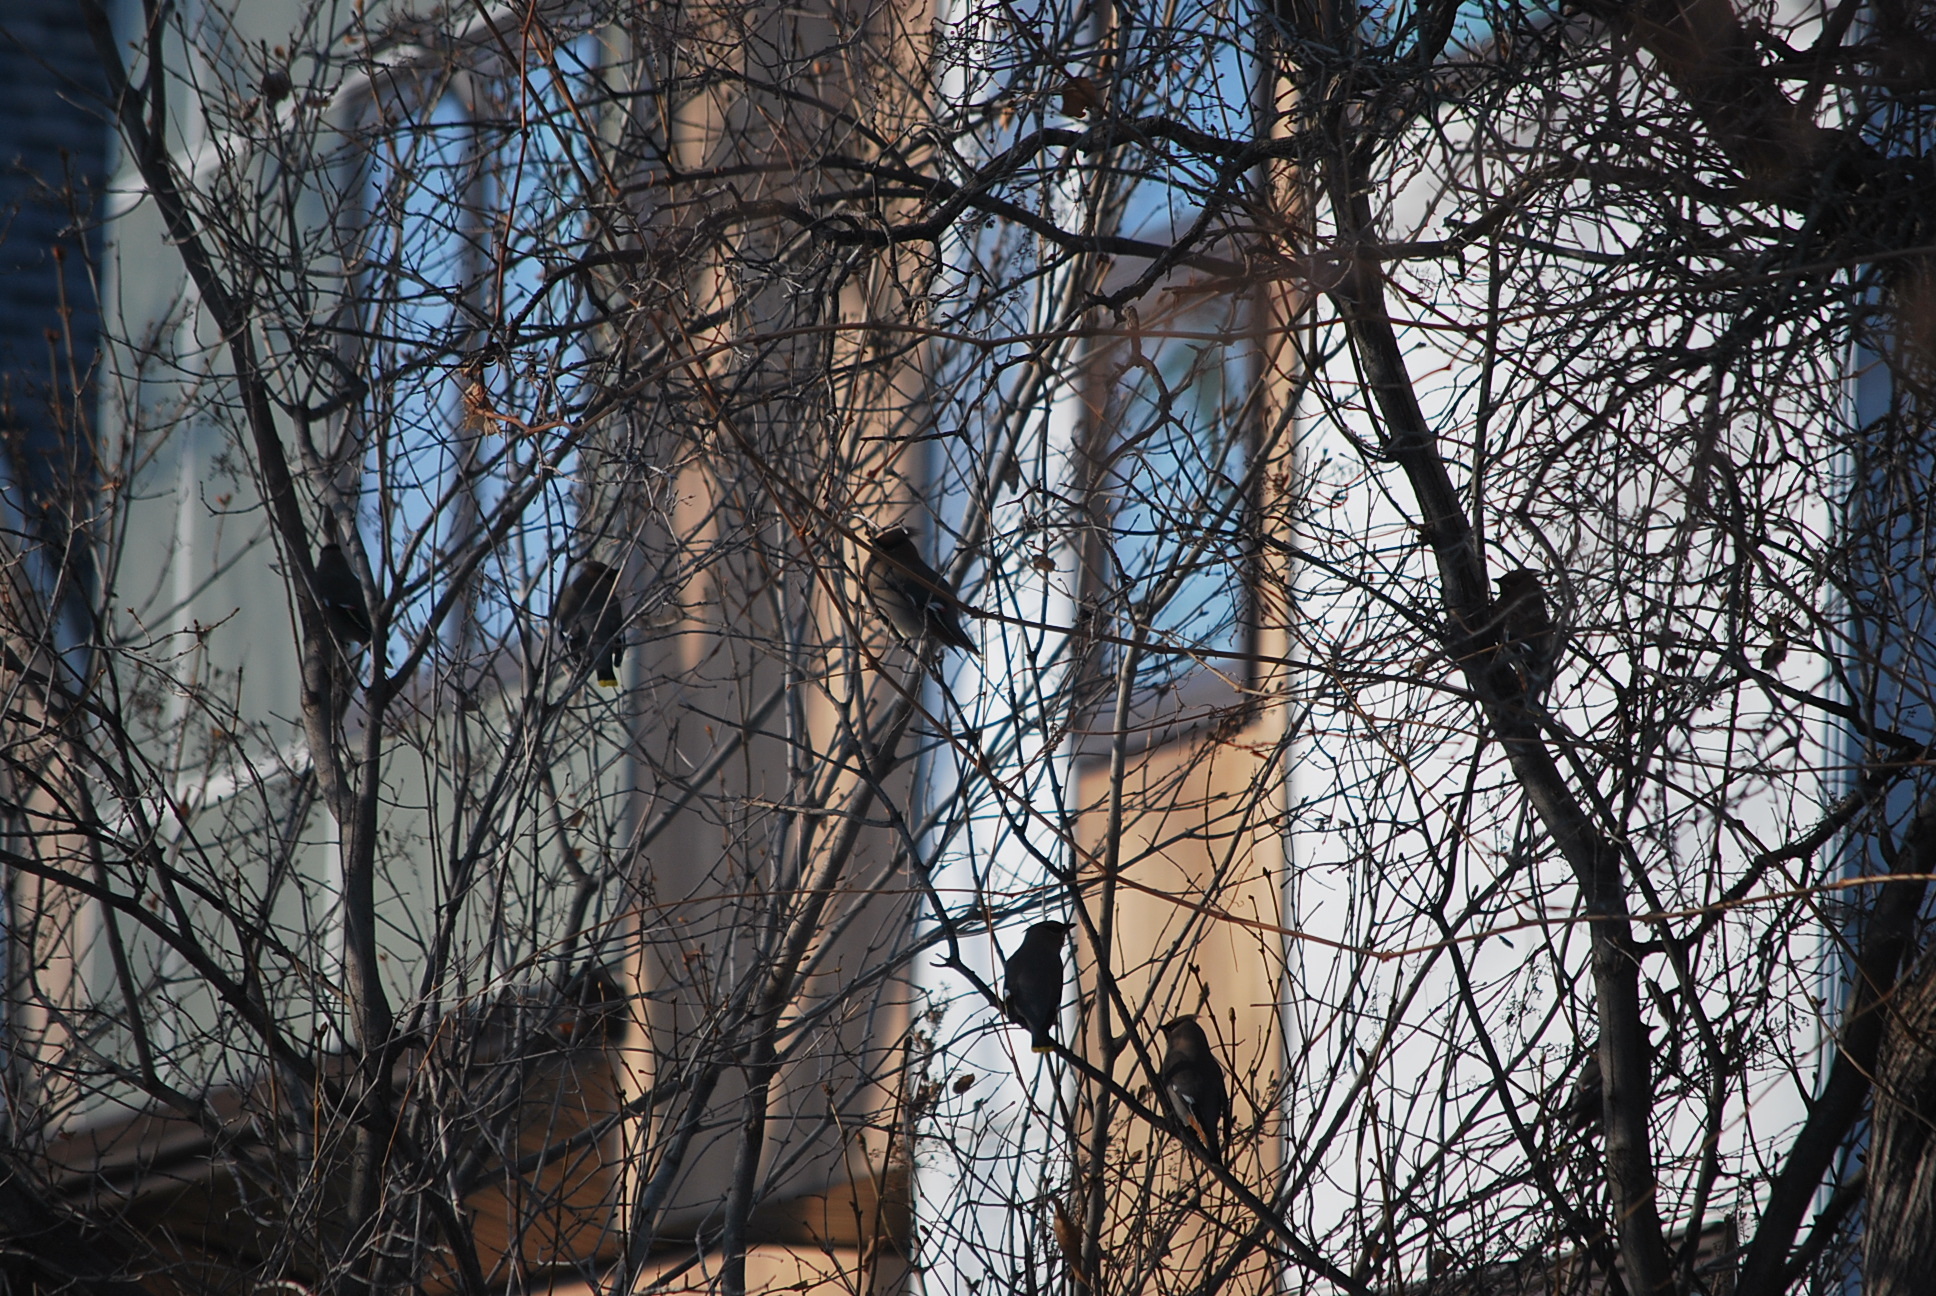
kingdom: Animalia
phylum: Chordata
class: Aves
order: Passeriformes
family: Bombycillidae
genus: Bombycilla
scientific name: Bombycilla garrulus
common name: Bohemian waxwing
